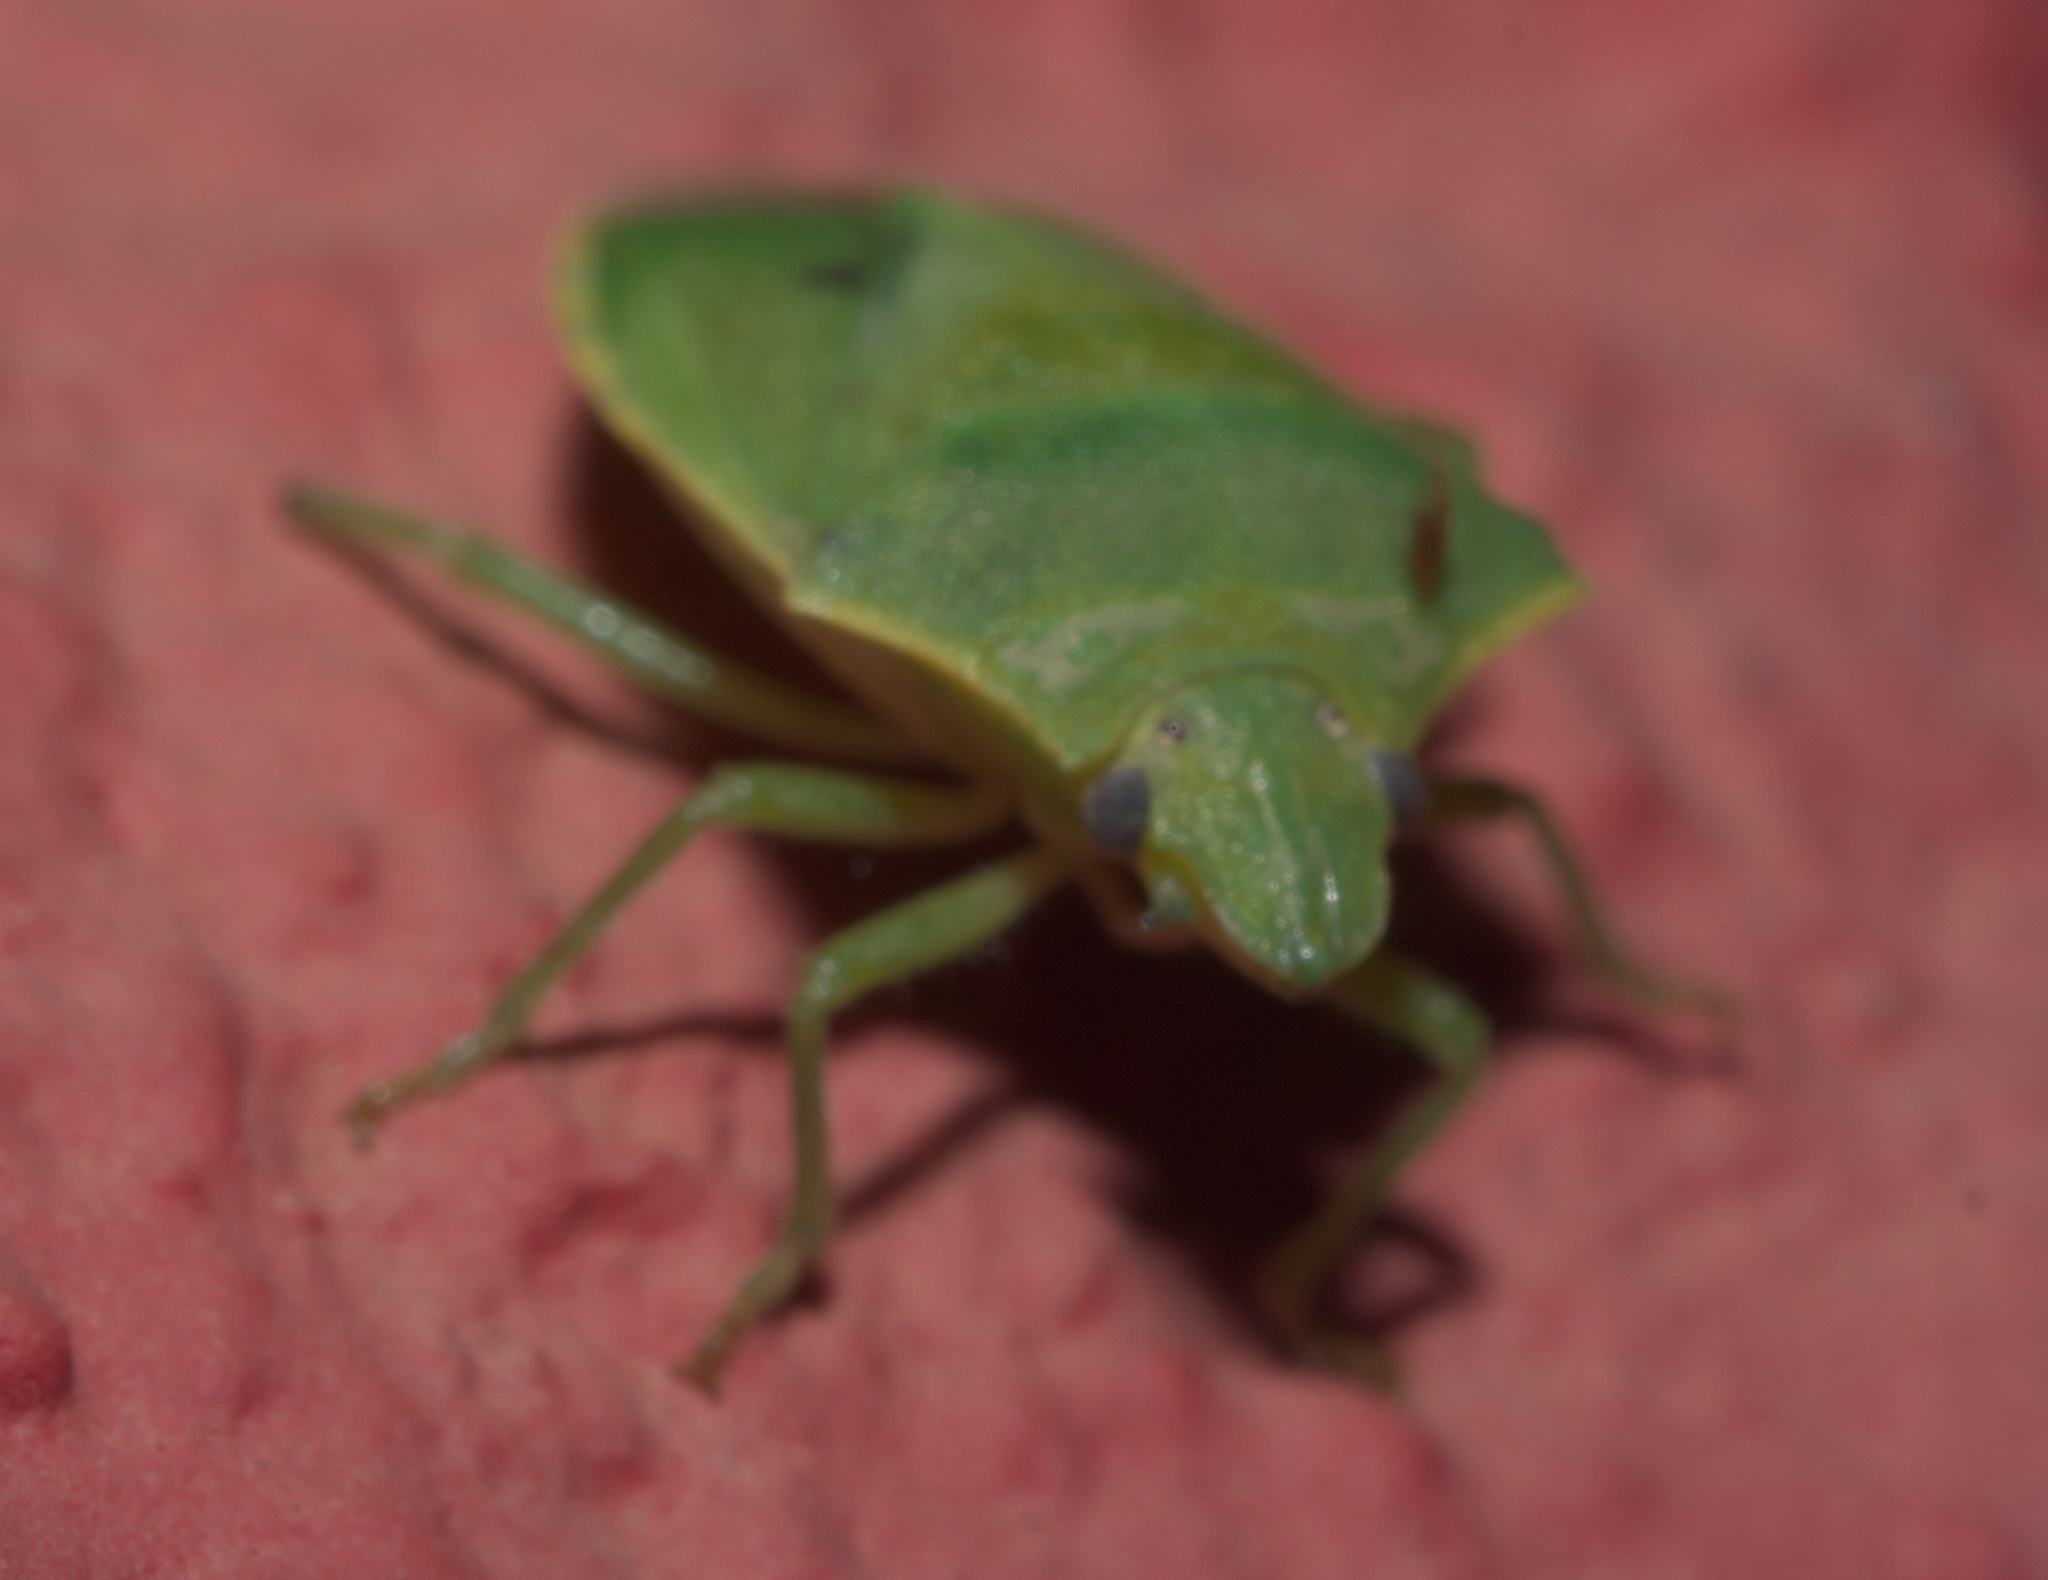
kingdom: Animalia
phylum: Arthropoda
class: Insecta
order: Hemiptera
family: Pentatomidae
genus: Thyanta
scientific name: Thyanta accerra
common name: Stink bug
